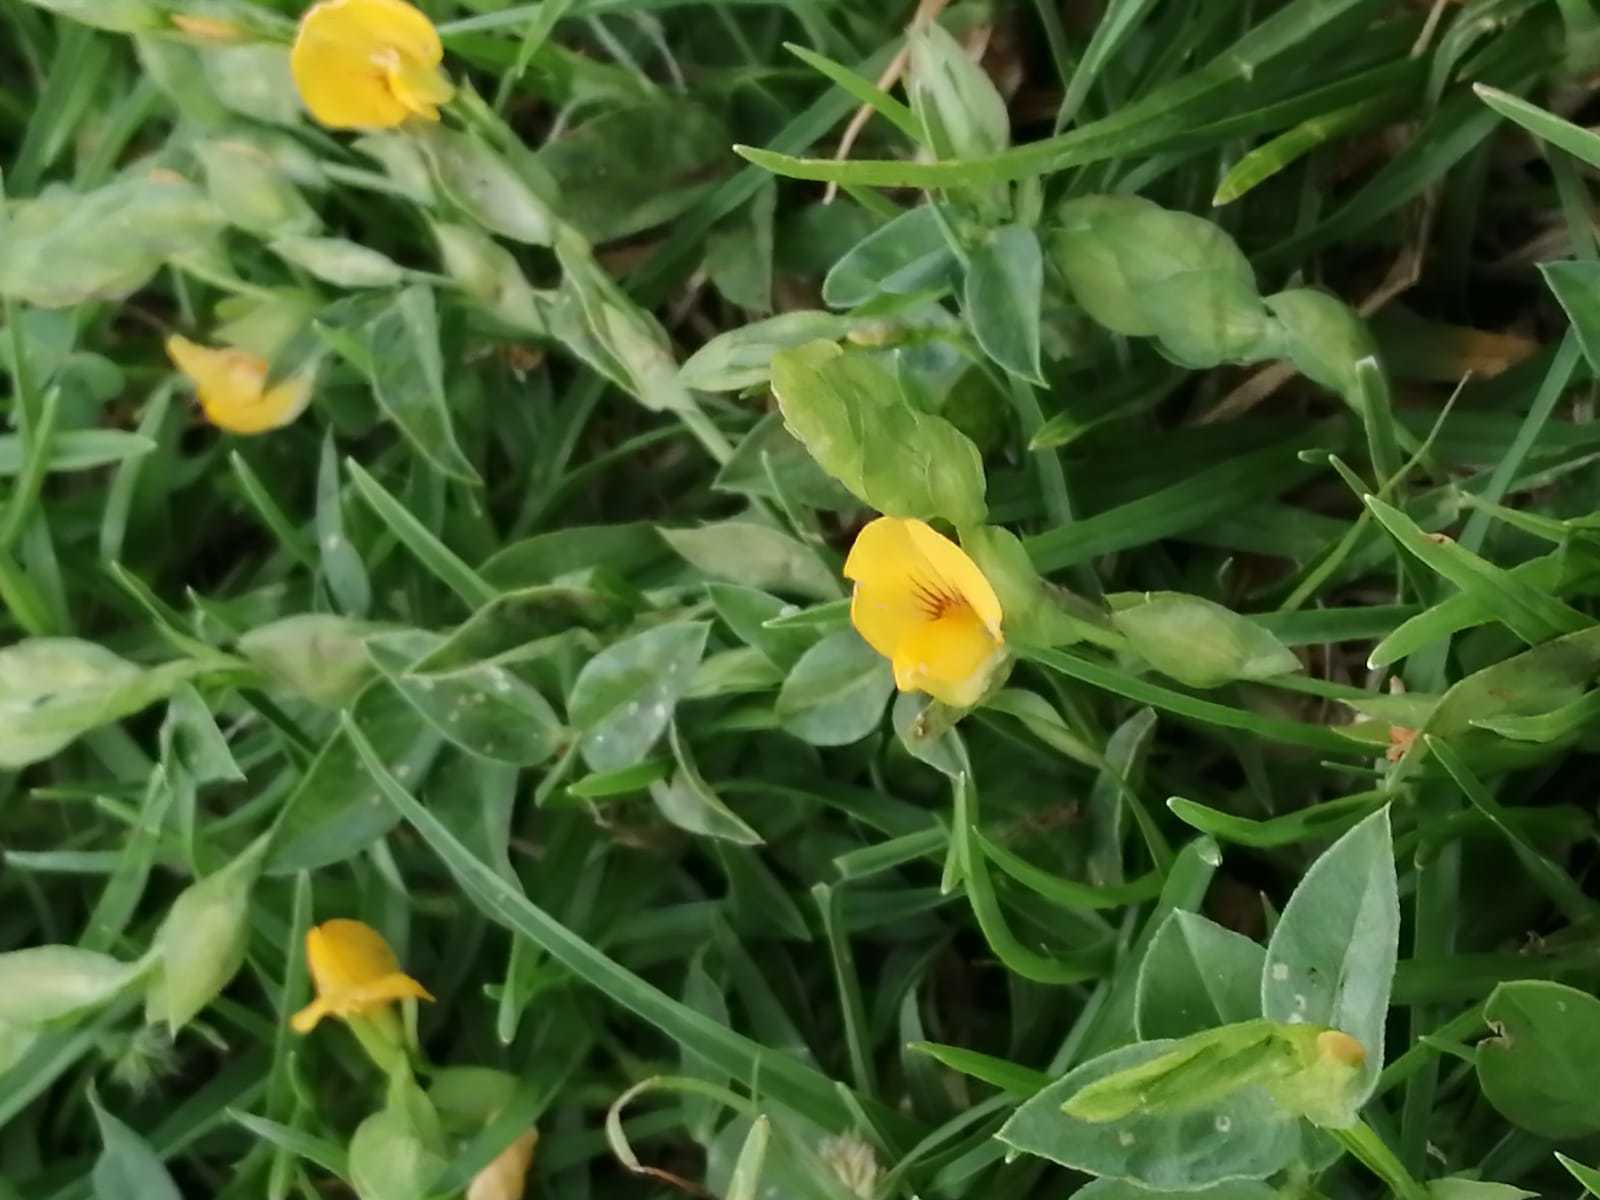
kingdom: Plantae
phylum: Tracheophyta
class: Magnoliopsida
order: Lamiales
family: Plantaginaceae
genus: Mecardonia
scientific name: Mecardonia procumbens
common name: Baby jump-up
